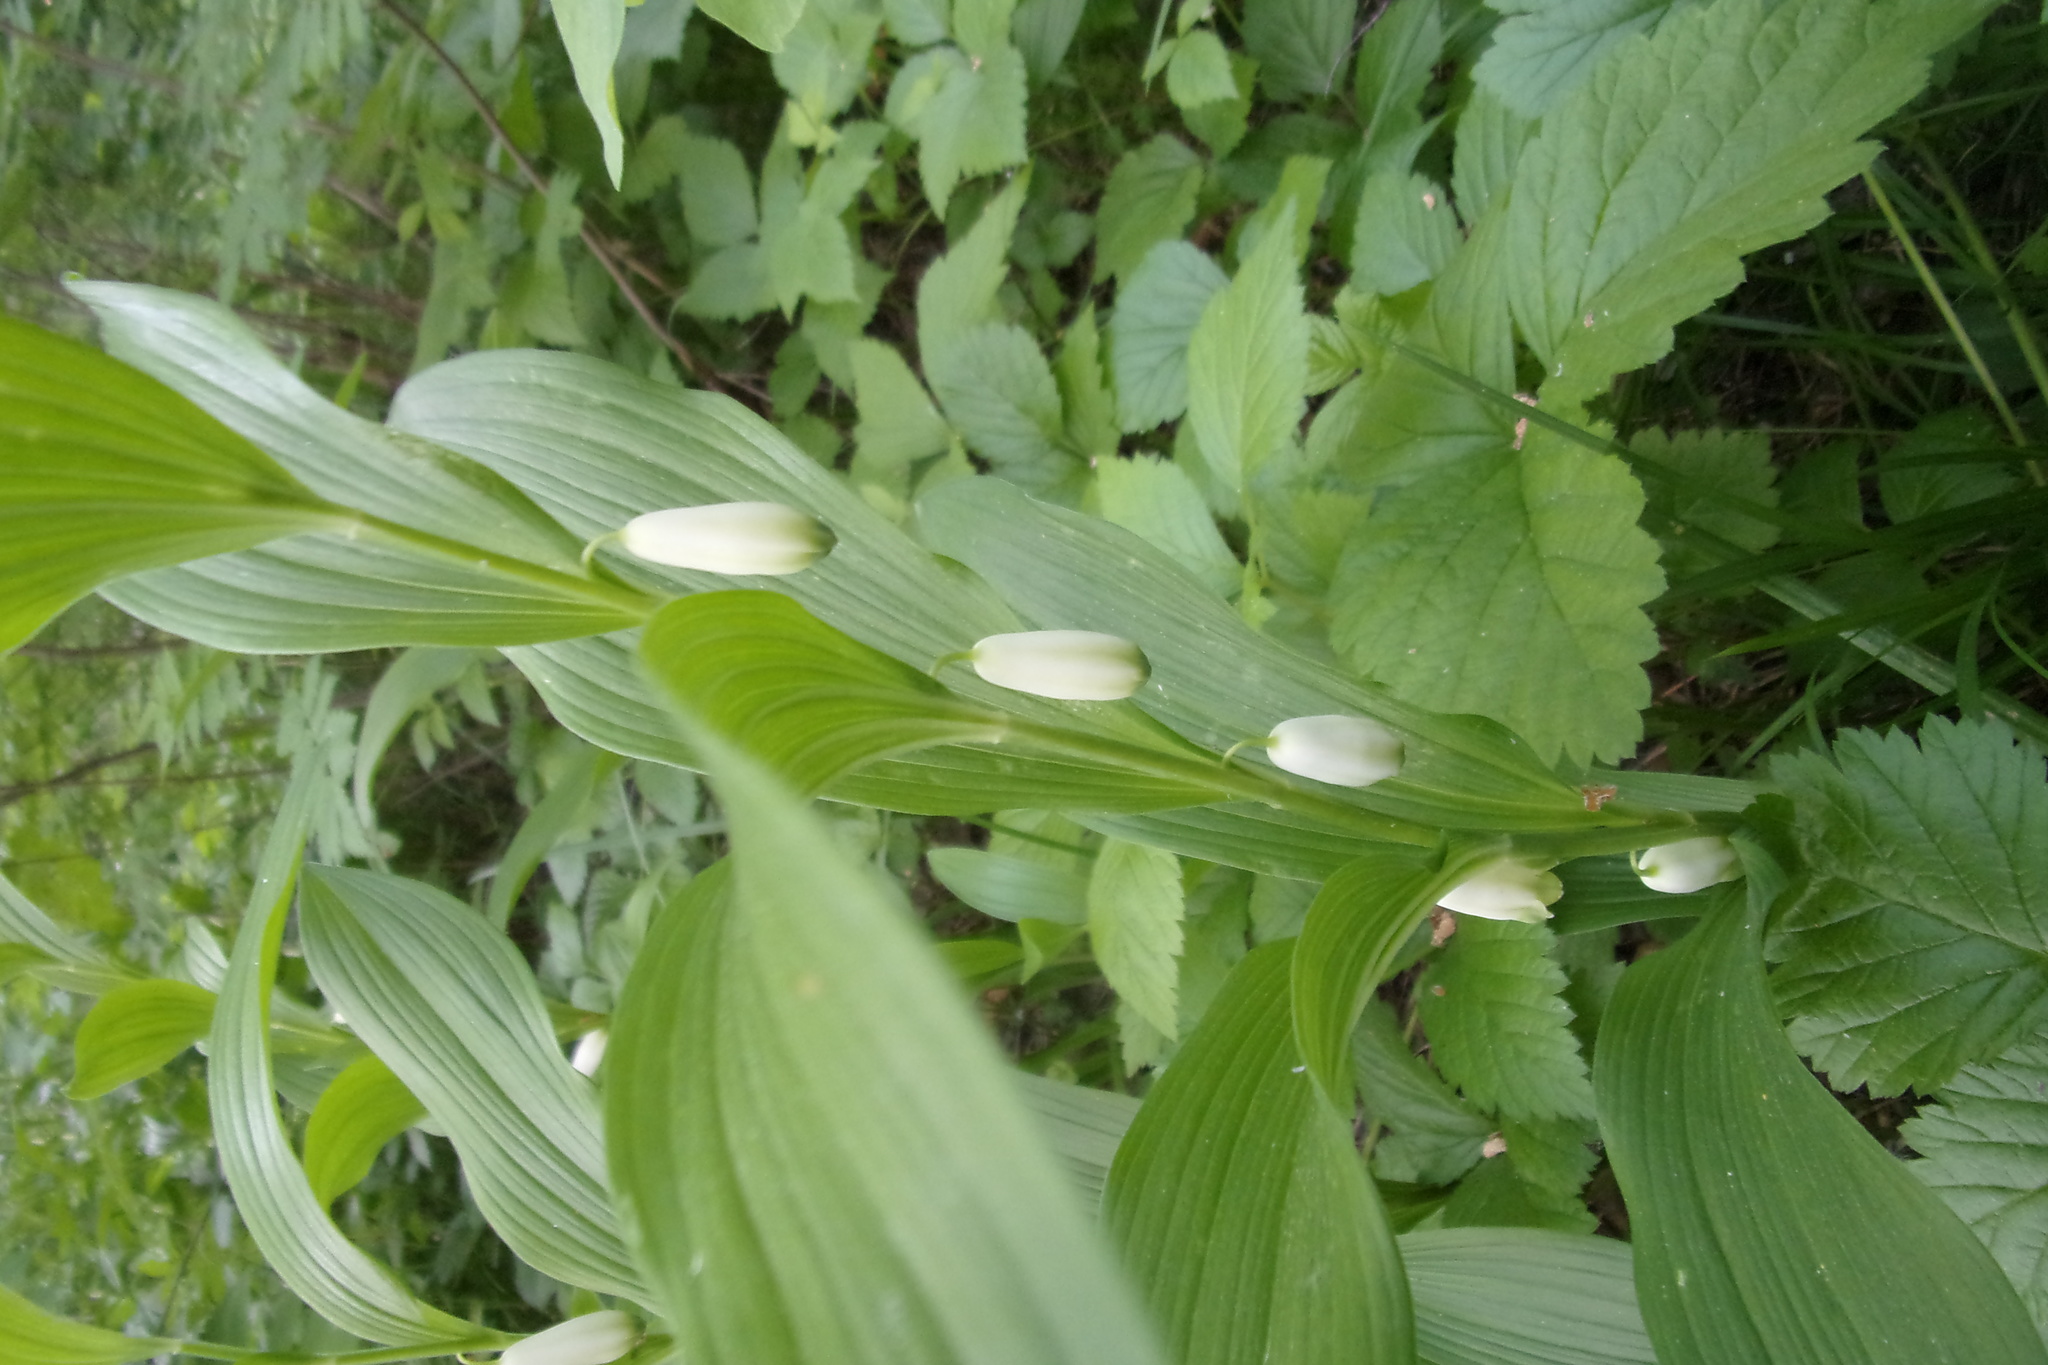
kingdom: Plantae
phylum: Tracheophyta
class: Liliopsida
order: Asparagales
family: Asparagaceae
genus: Polygonatum
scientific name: Polygonatum humile
